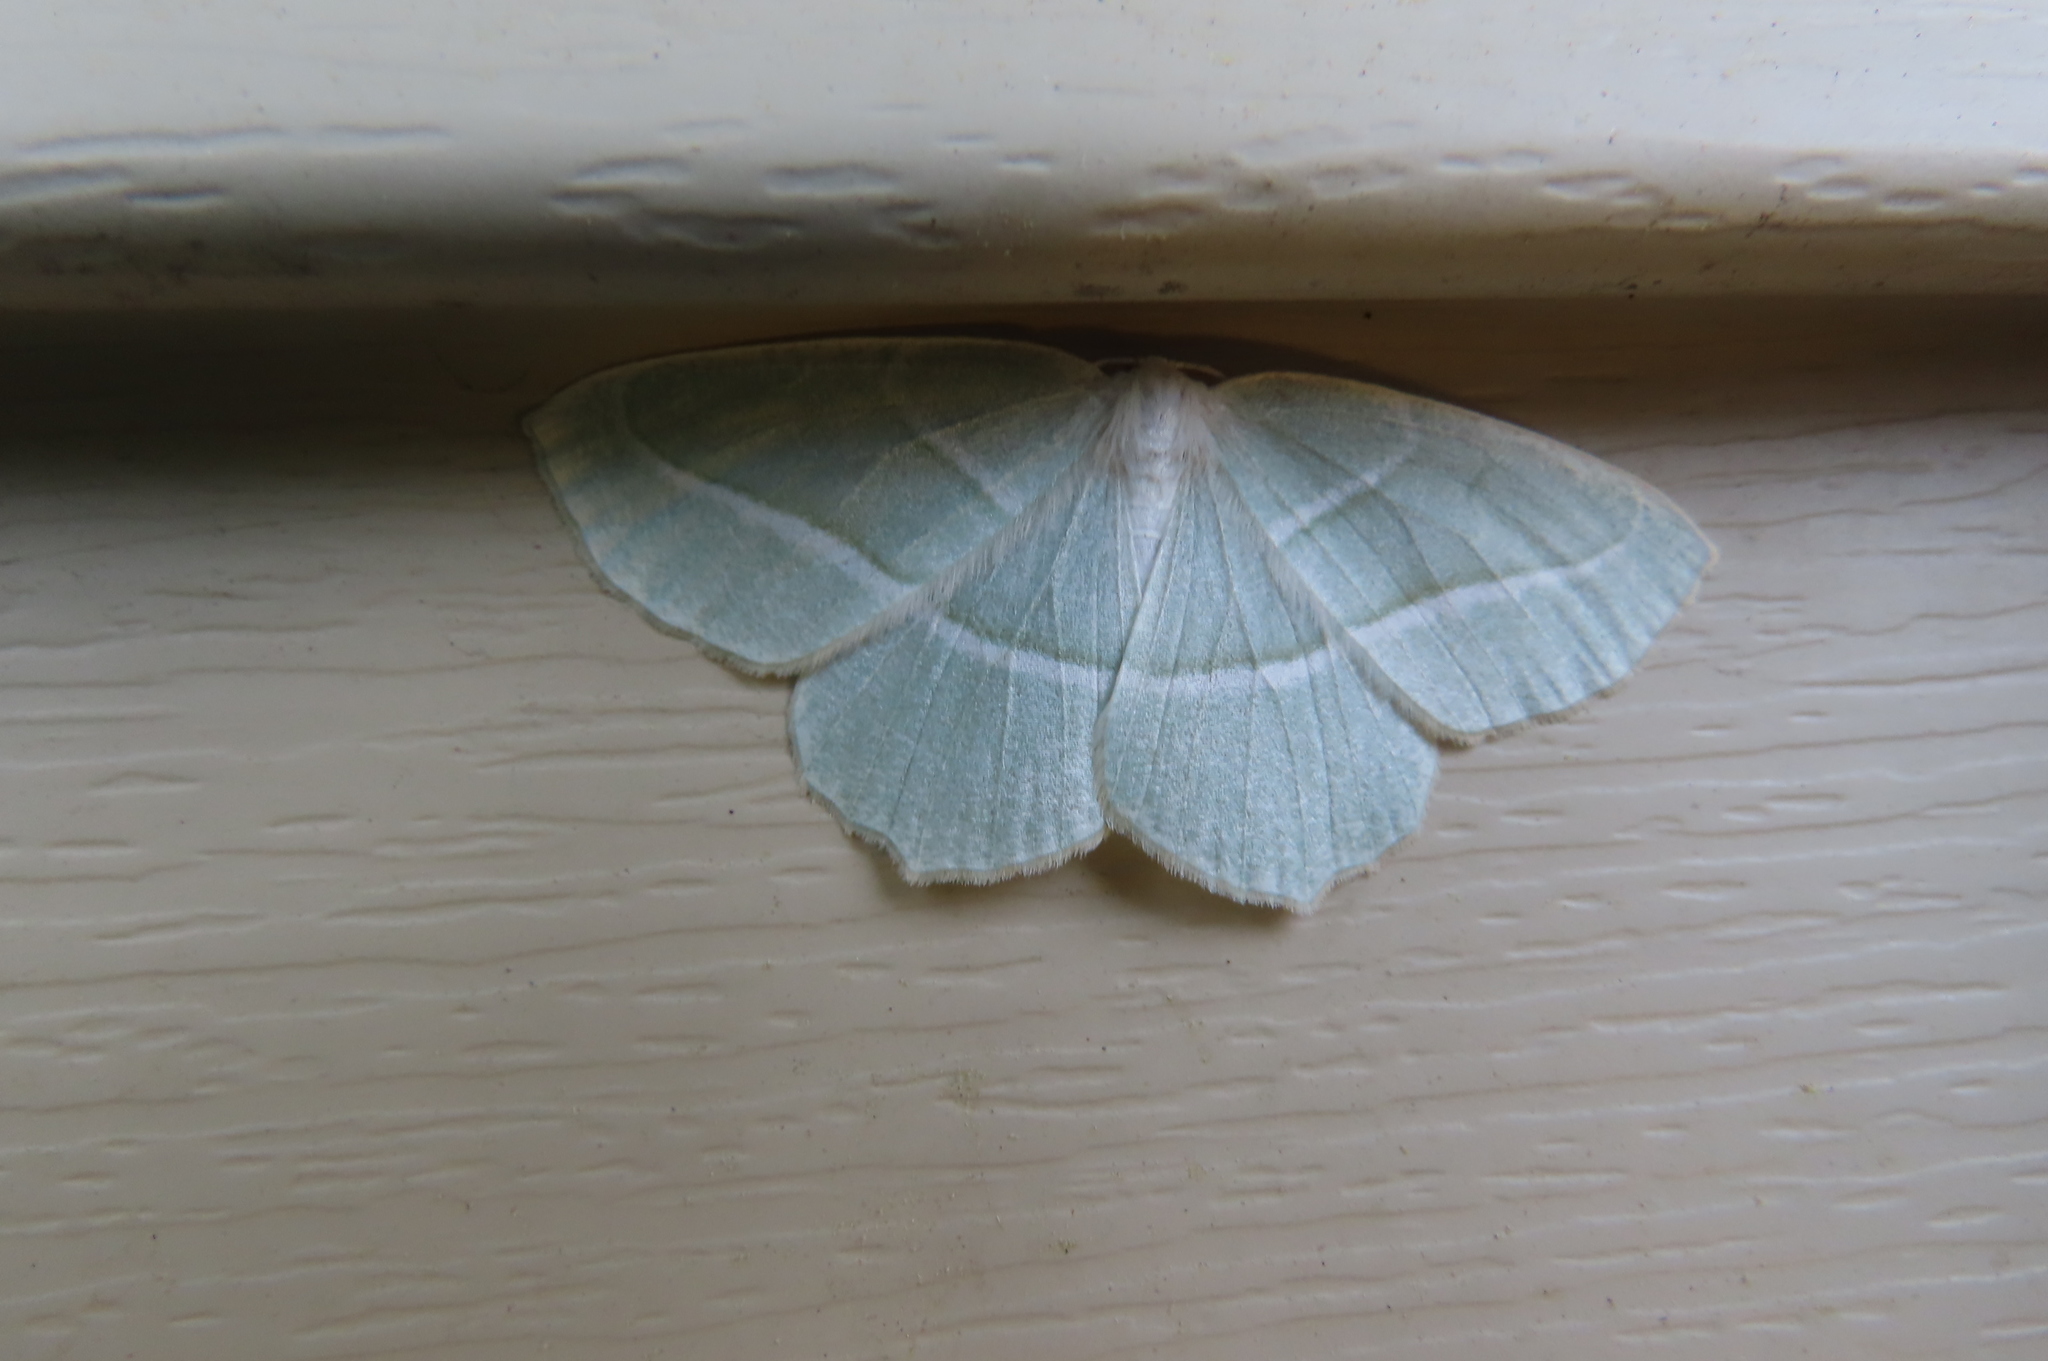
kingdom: Animalia
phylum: Arthropoda
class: Insecta
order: Lepidoptera
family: Geometridae
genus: Campaea
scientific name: Campaea perlata
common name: Fringed looper
